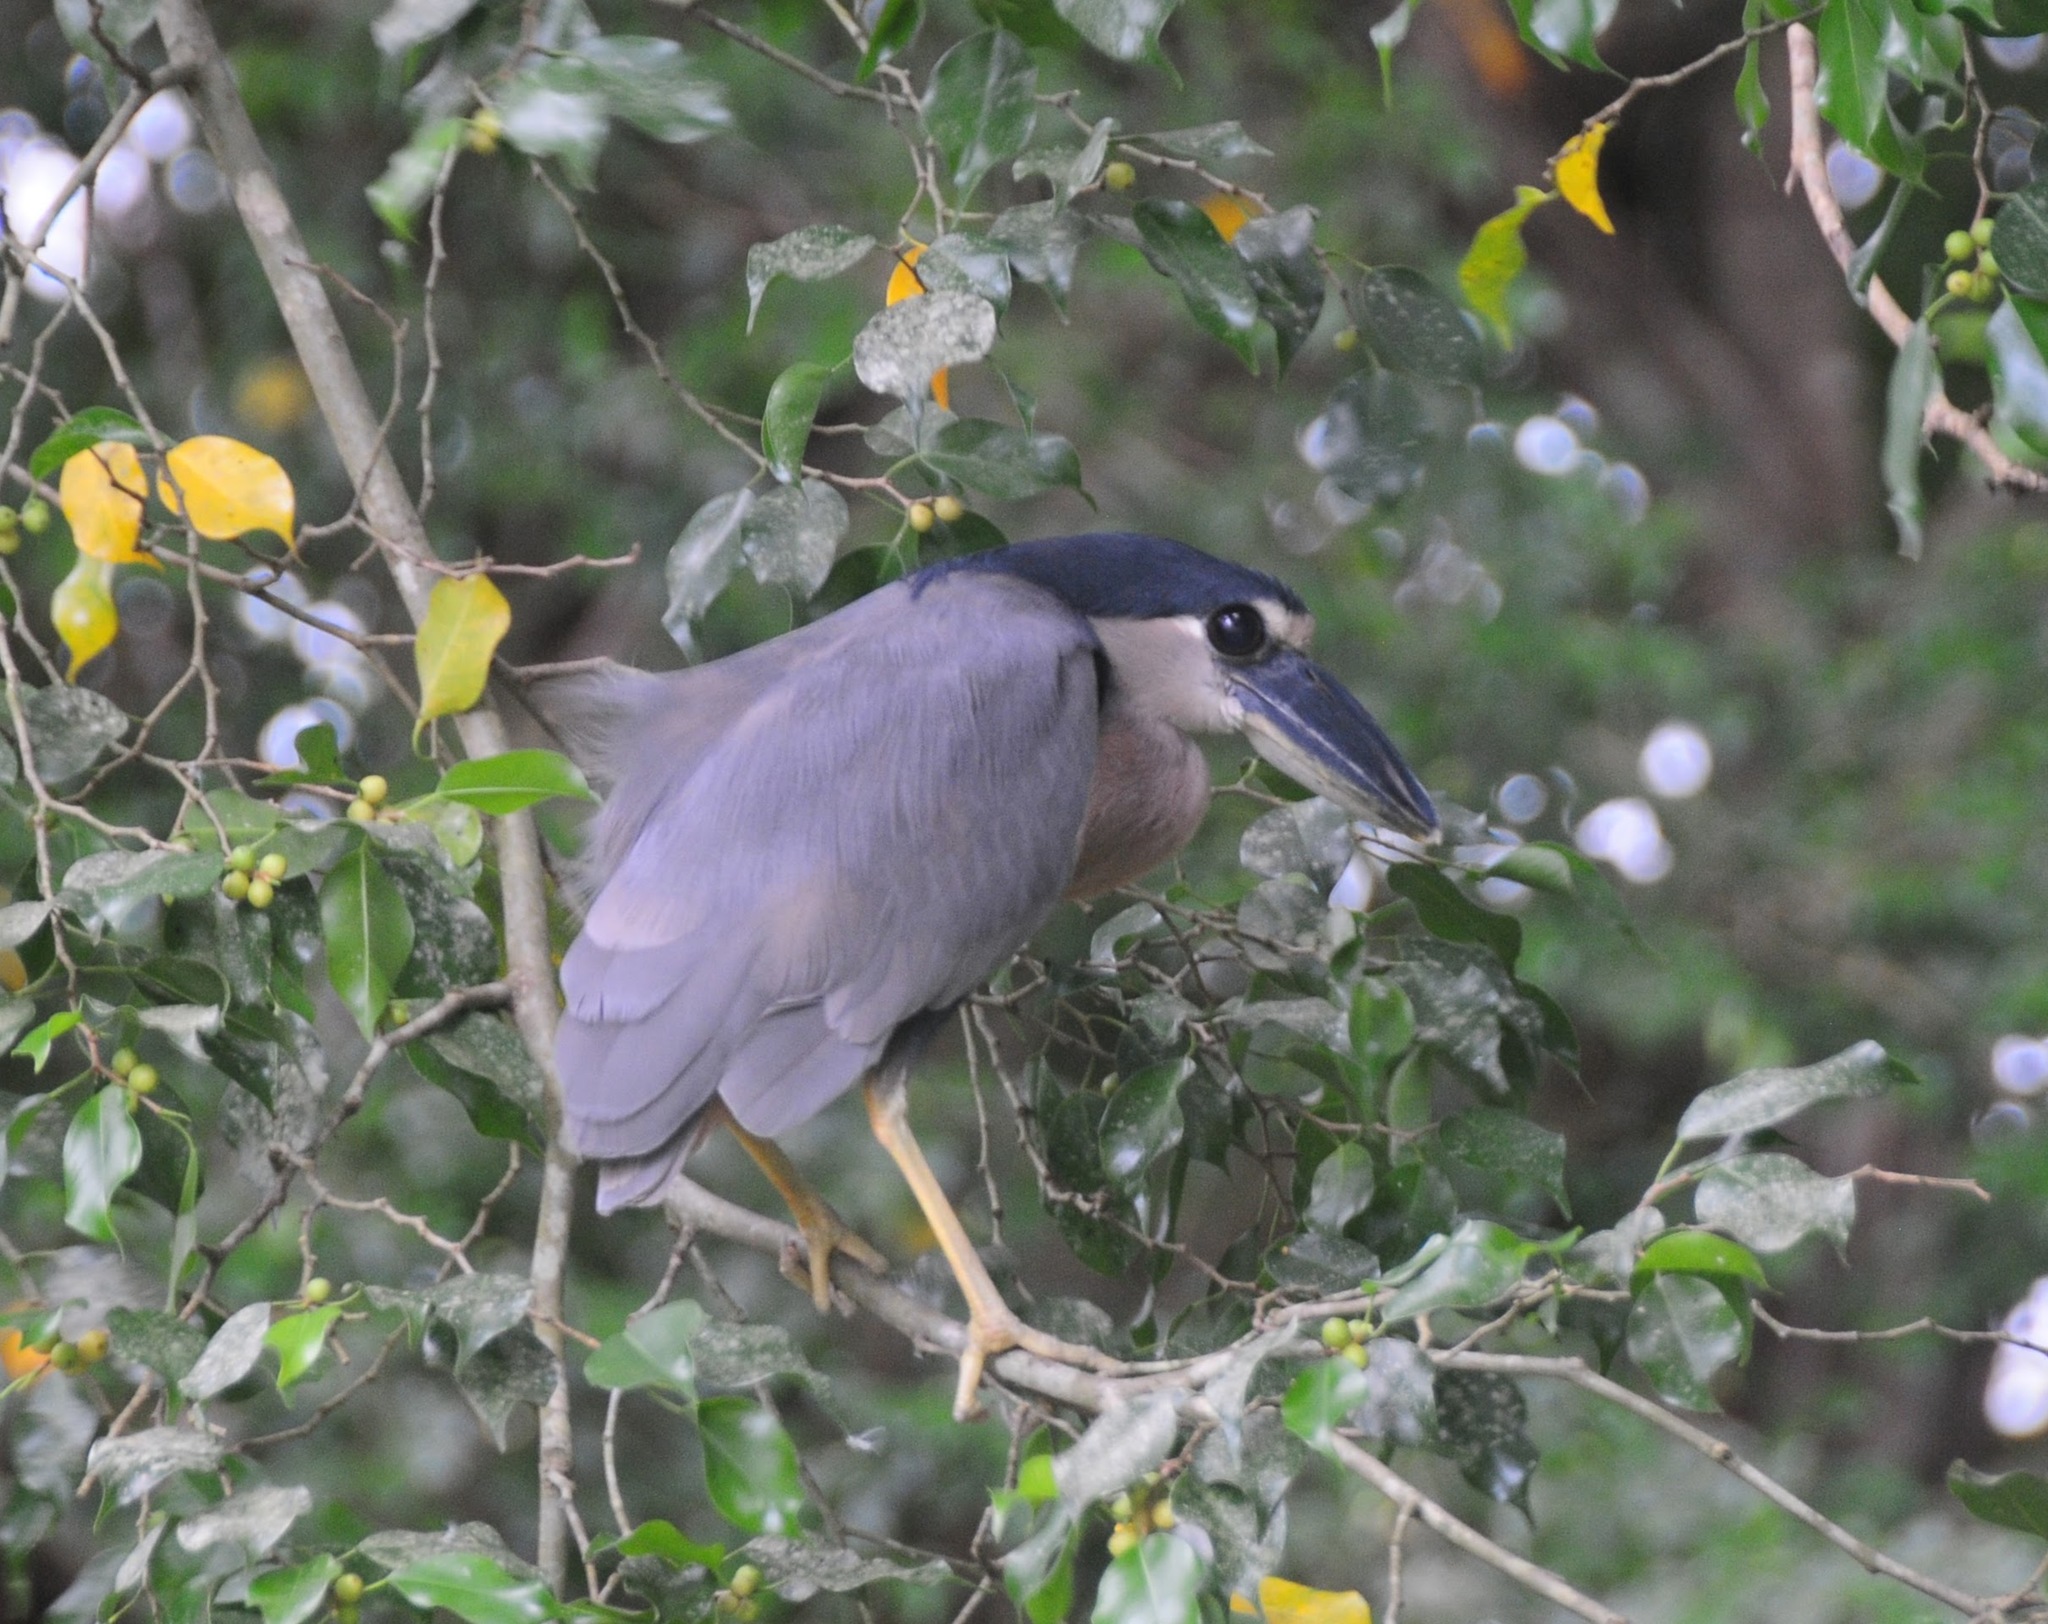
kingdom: Animalia
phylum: Chordata
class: Aves
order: Pelecaniformes
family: Ardeidae
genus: Cochlearius
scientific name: Cochlearius cochlearius
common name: Boat-billed heron
